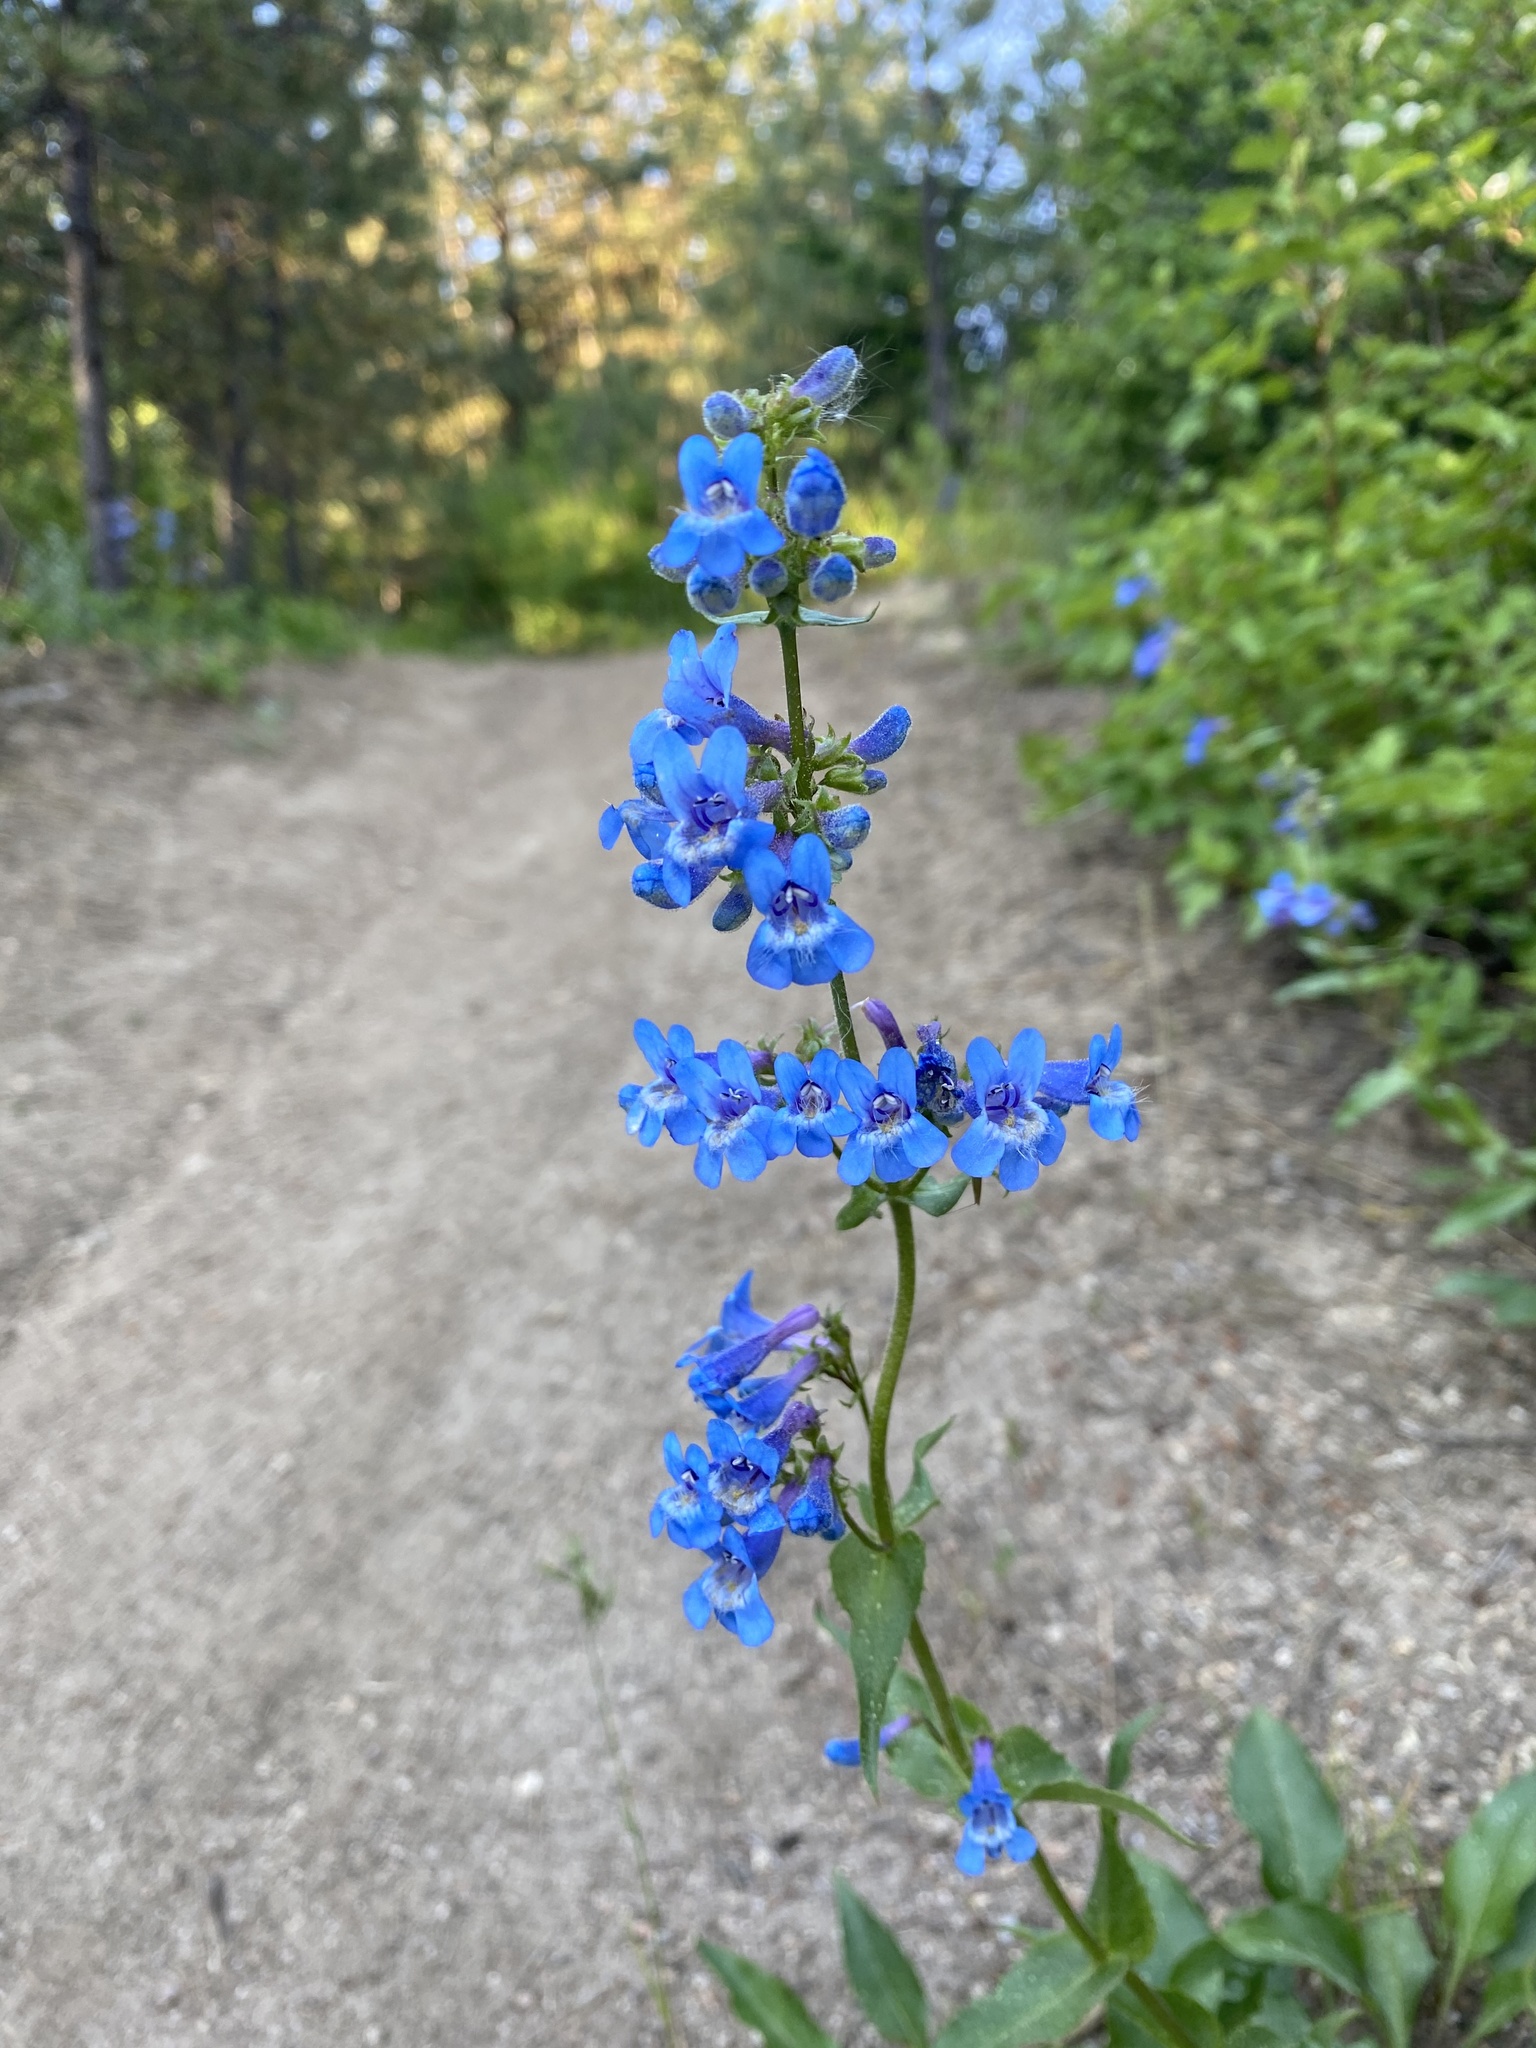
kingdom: Plantae
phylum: Tracheophyta
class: Magnoliopsida
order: Lamiales
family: Plantaginaceae
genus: Penstemon
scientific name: Penstemon wilcoxii
